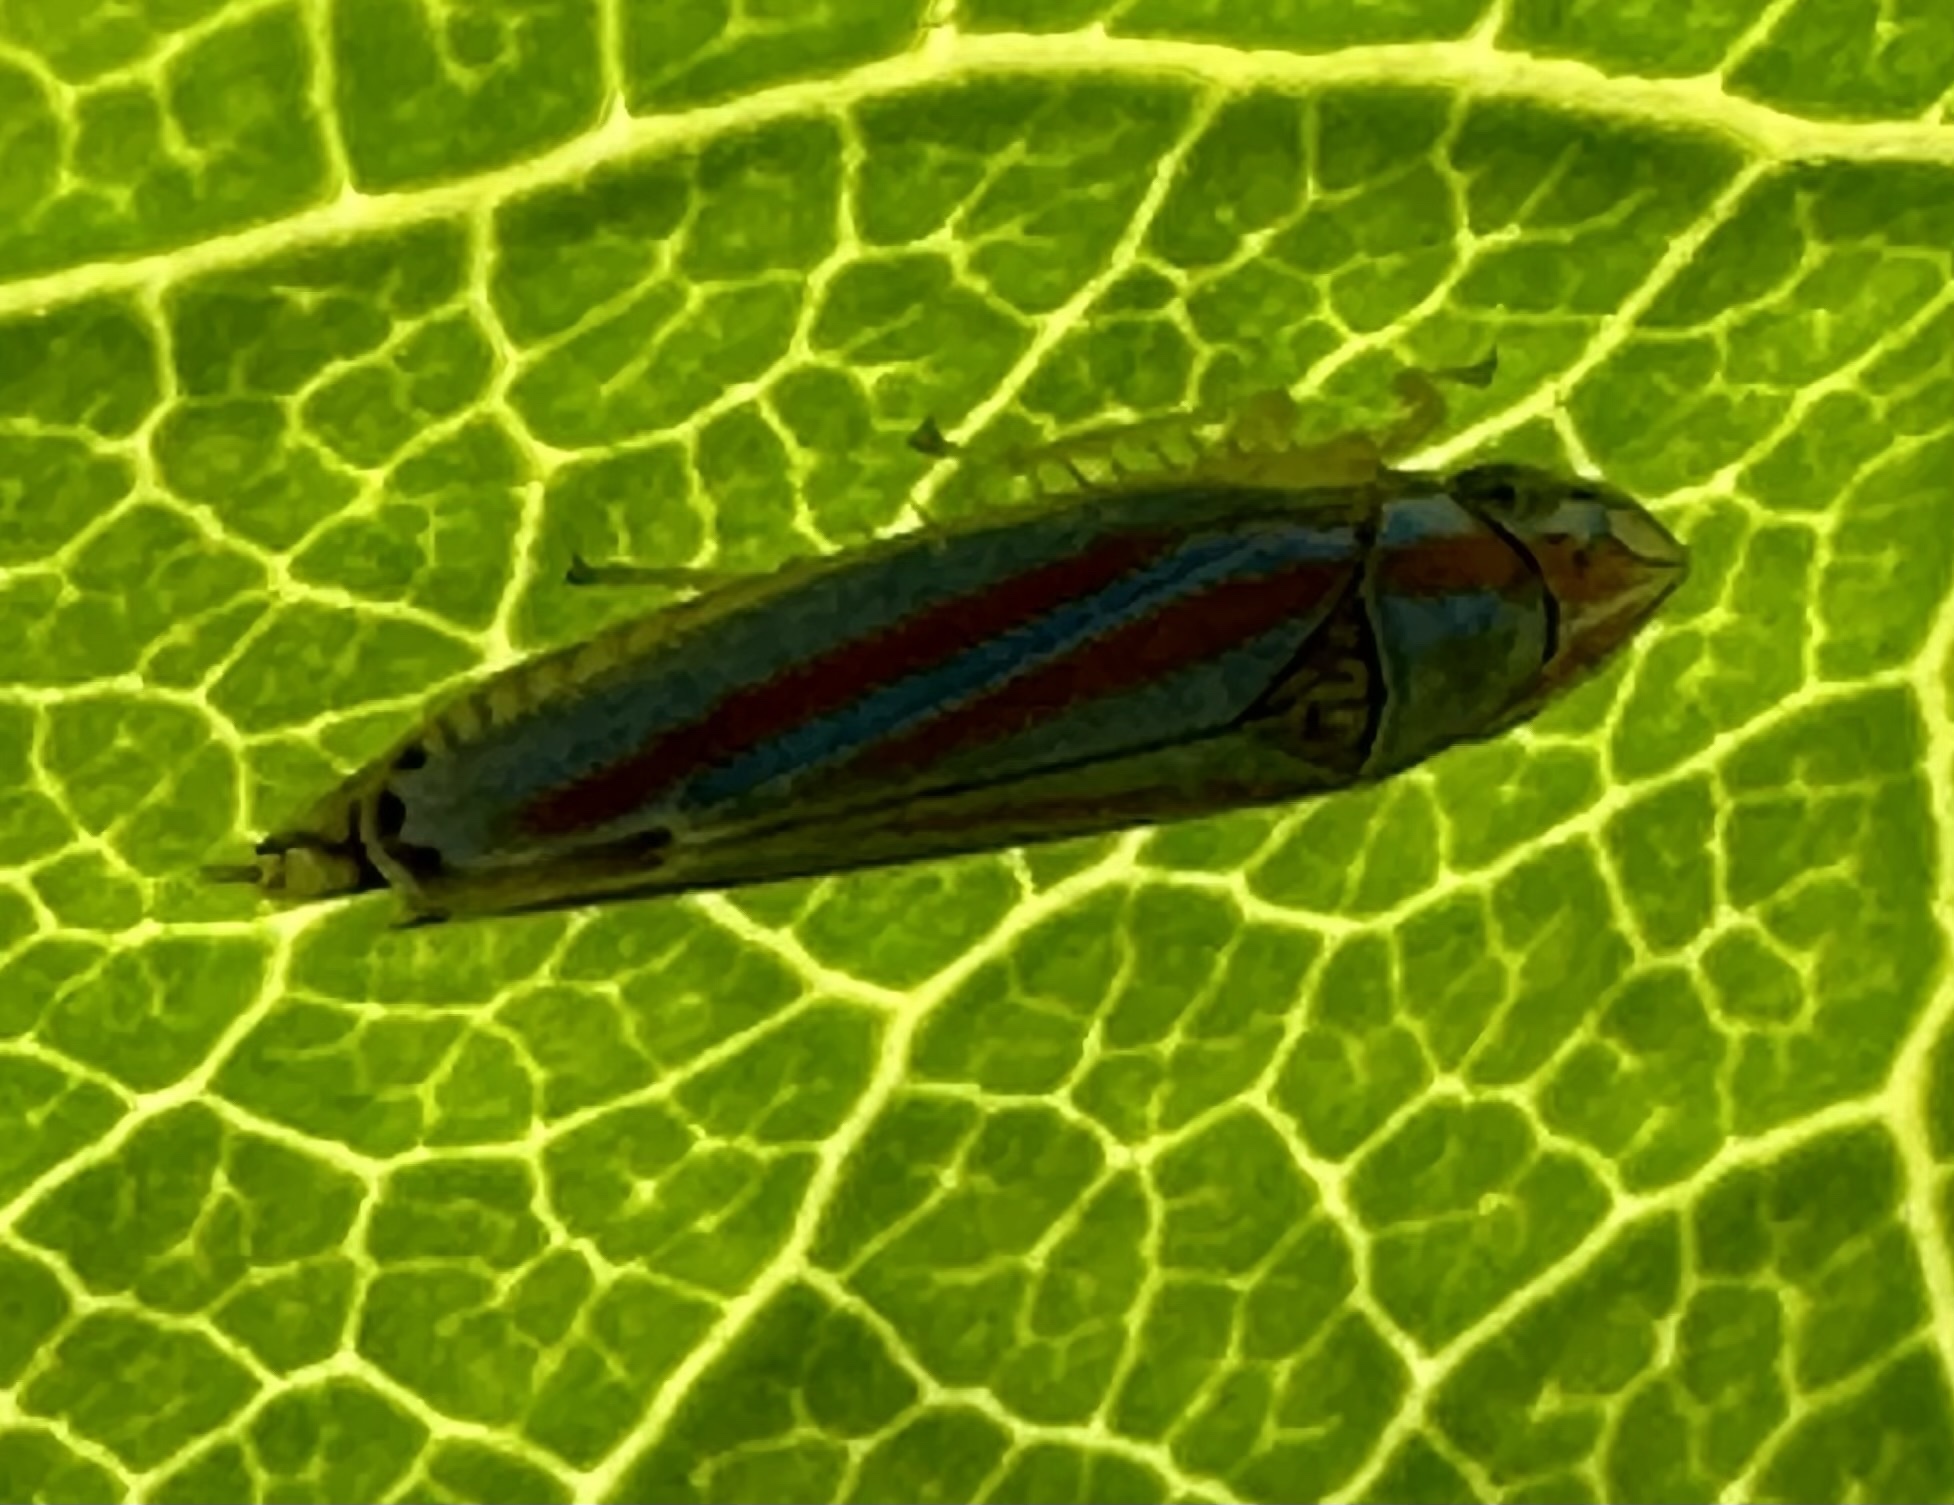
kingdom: Animalia
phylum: Arthropoda
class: Insecta
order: Hemiptera
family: Cicadellidae
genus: Graphocephala
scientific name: Graphocephala versuta
